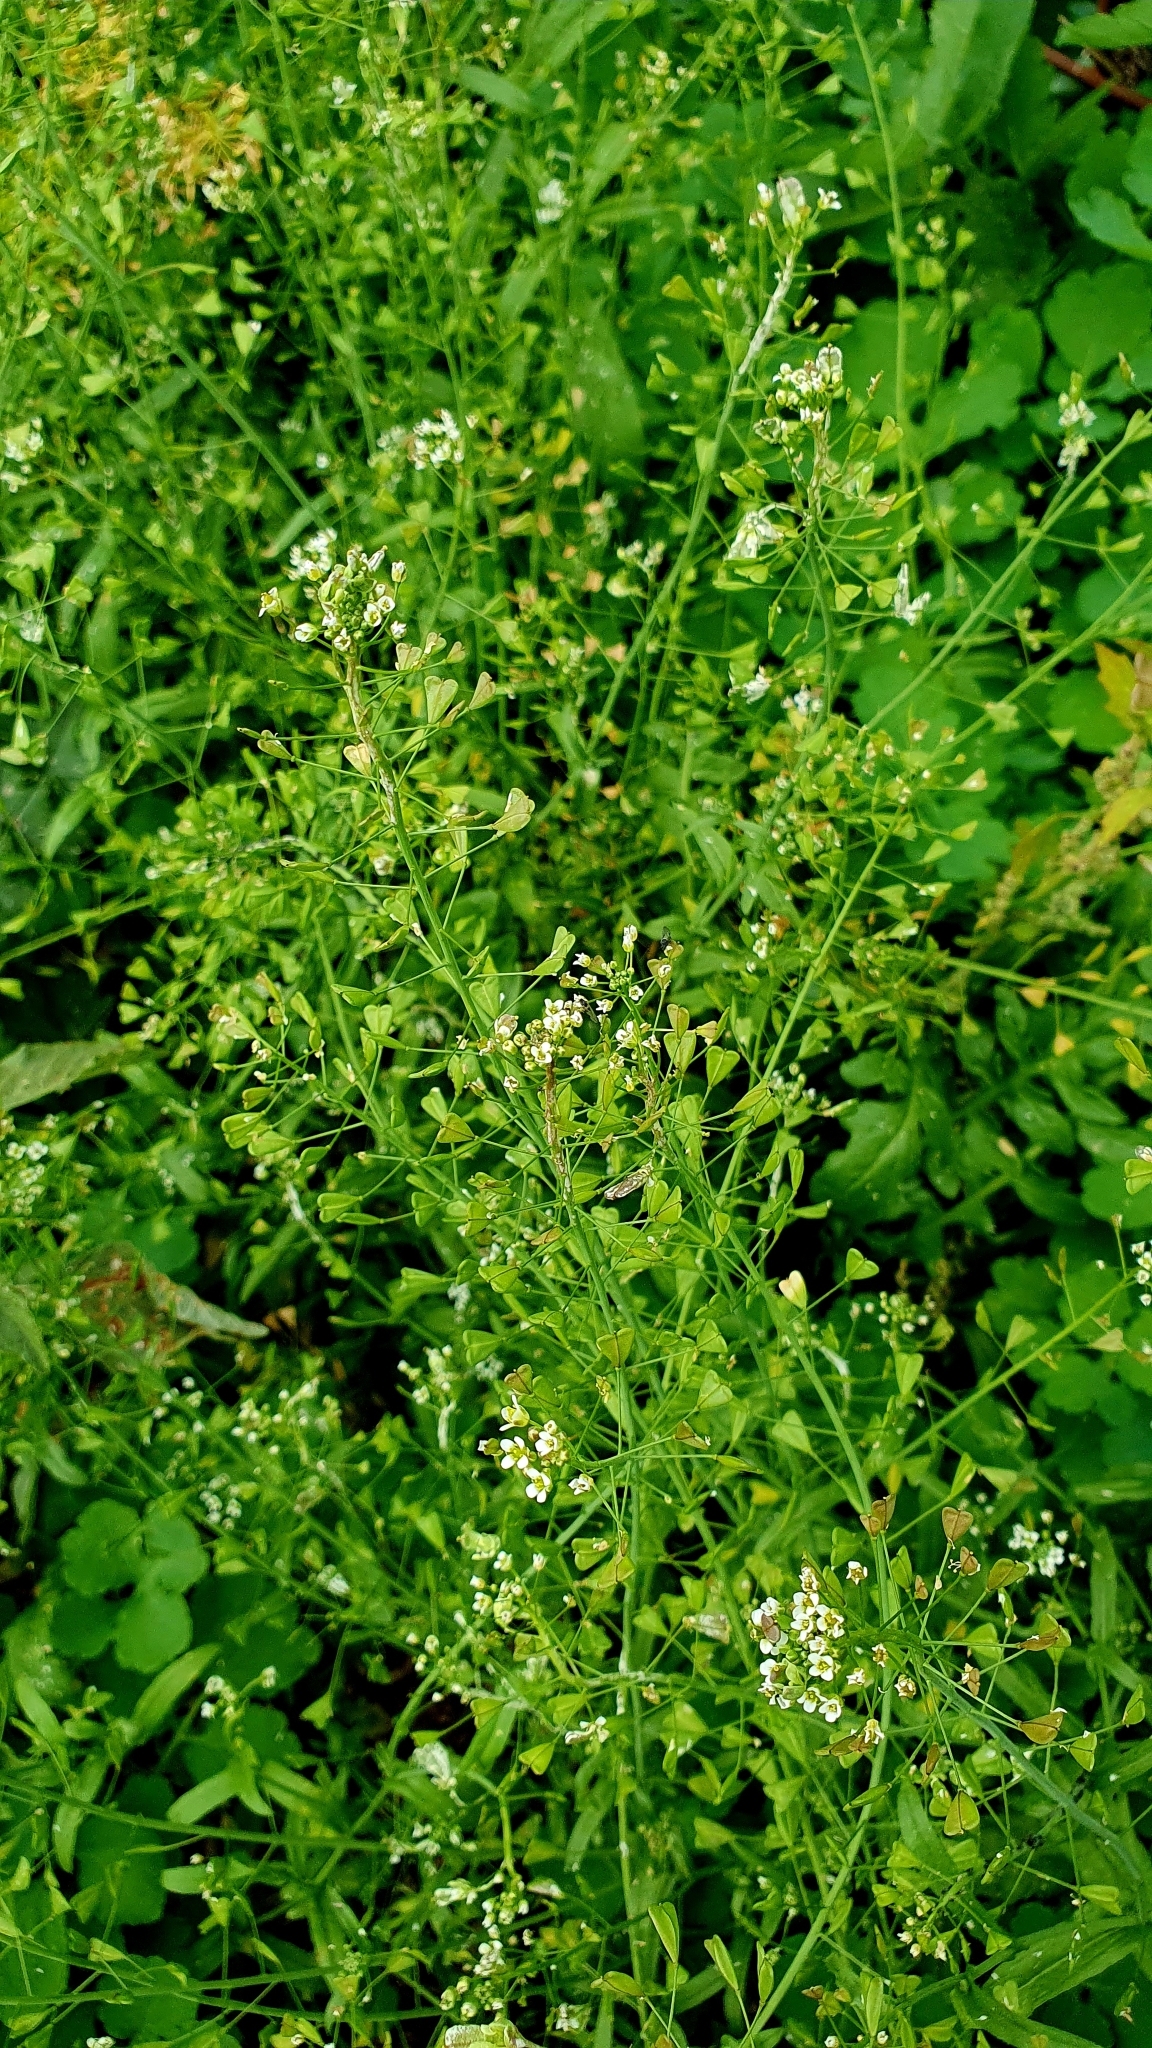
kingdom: Plantae
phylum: Tracheophyta
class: Magnoliopsida
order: Brassicales
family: Brassicaceae
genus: Capsella
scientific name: Capsella bursa-pastoris
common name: Shepherd's purse
